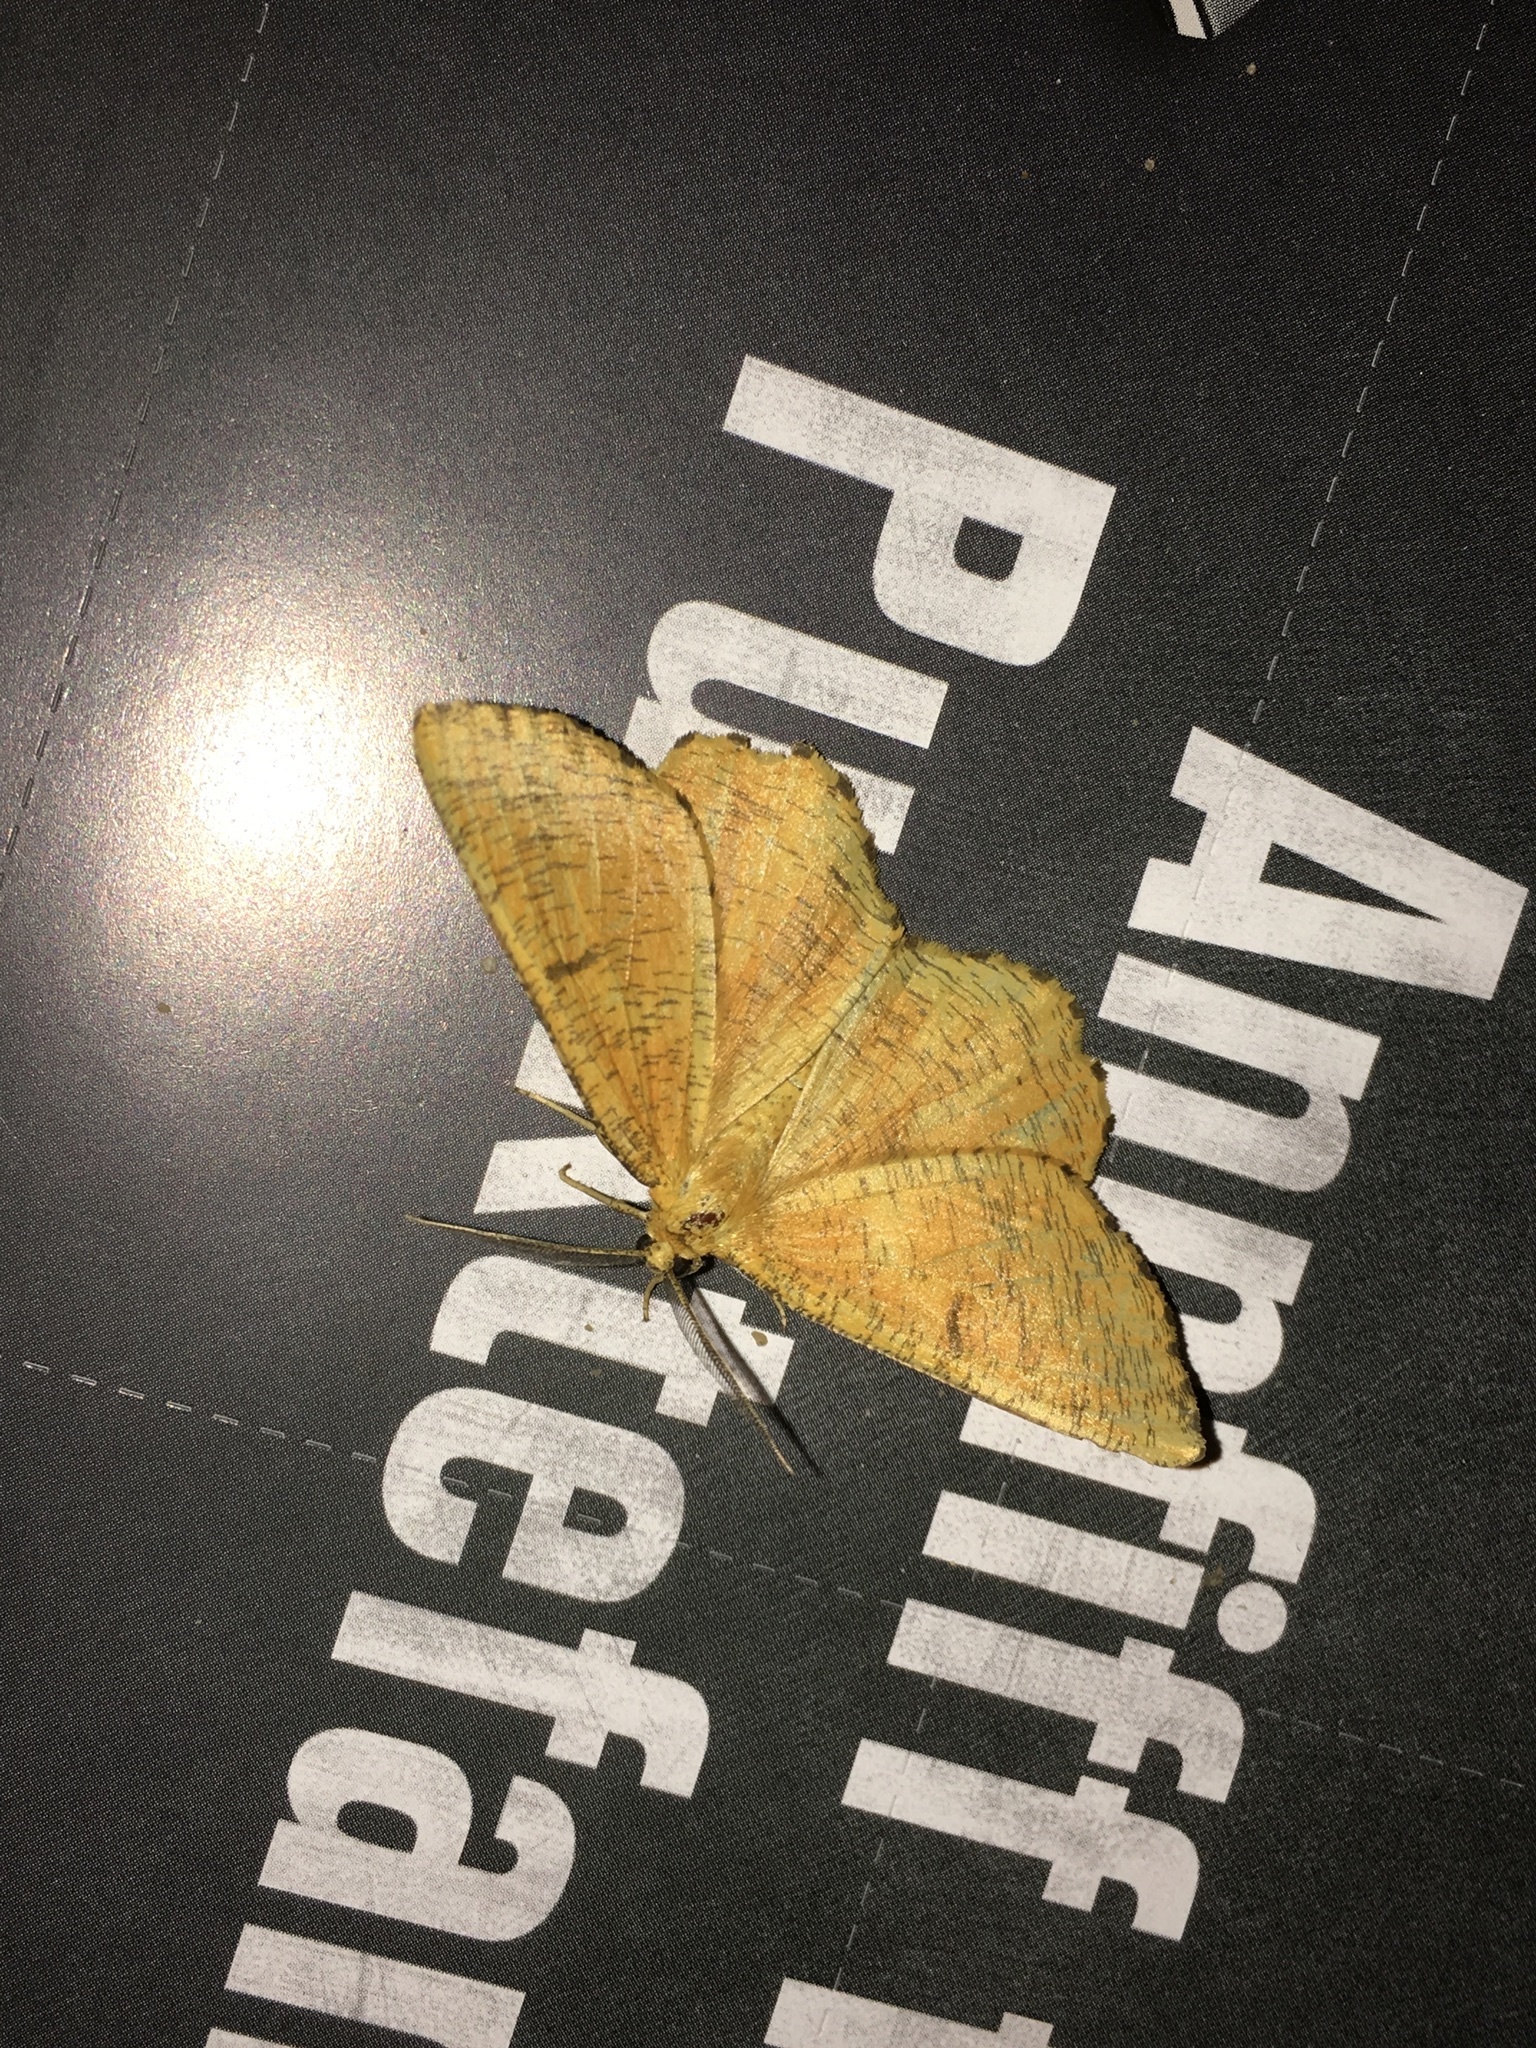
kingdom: Animalia
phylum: Arthropoda
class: Insecta
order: Lepidoptera
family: Geometridae
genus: Angerona
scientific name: Angerona prunaria
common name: Orange moth
